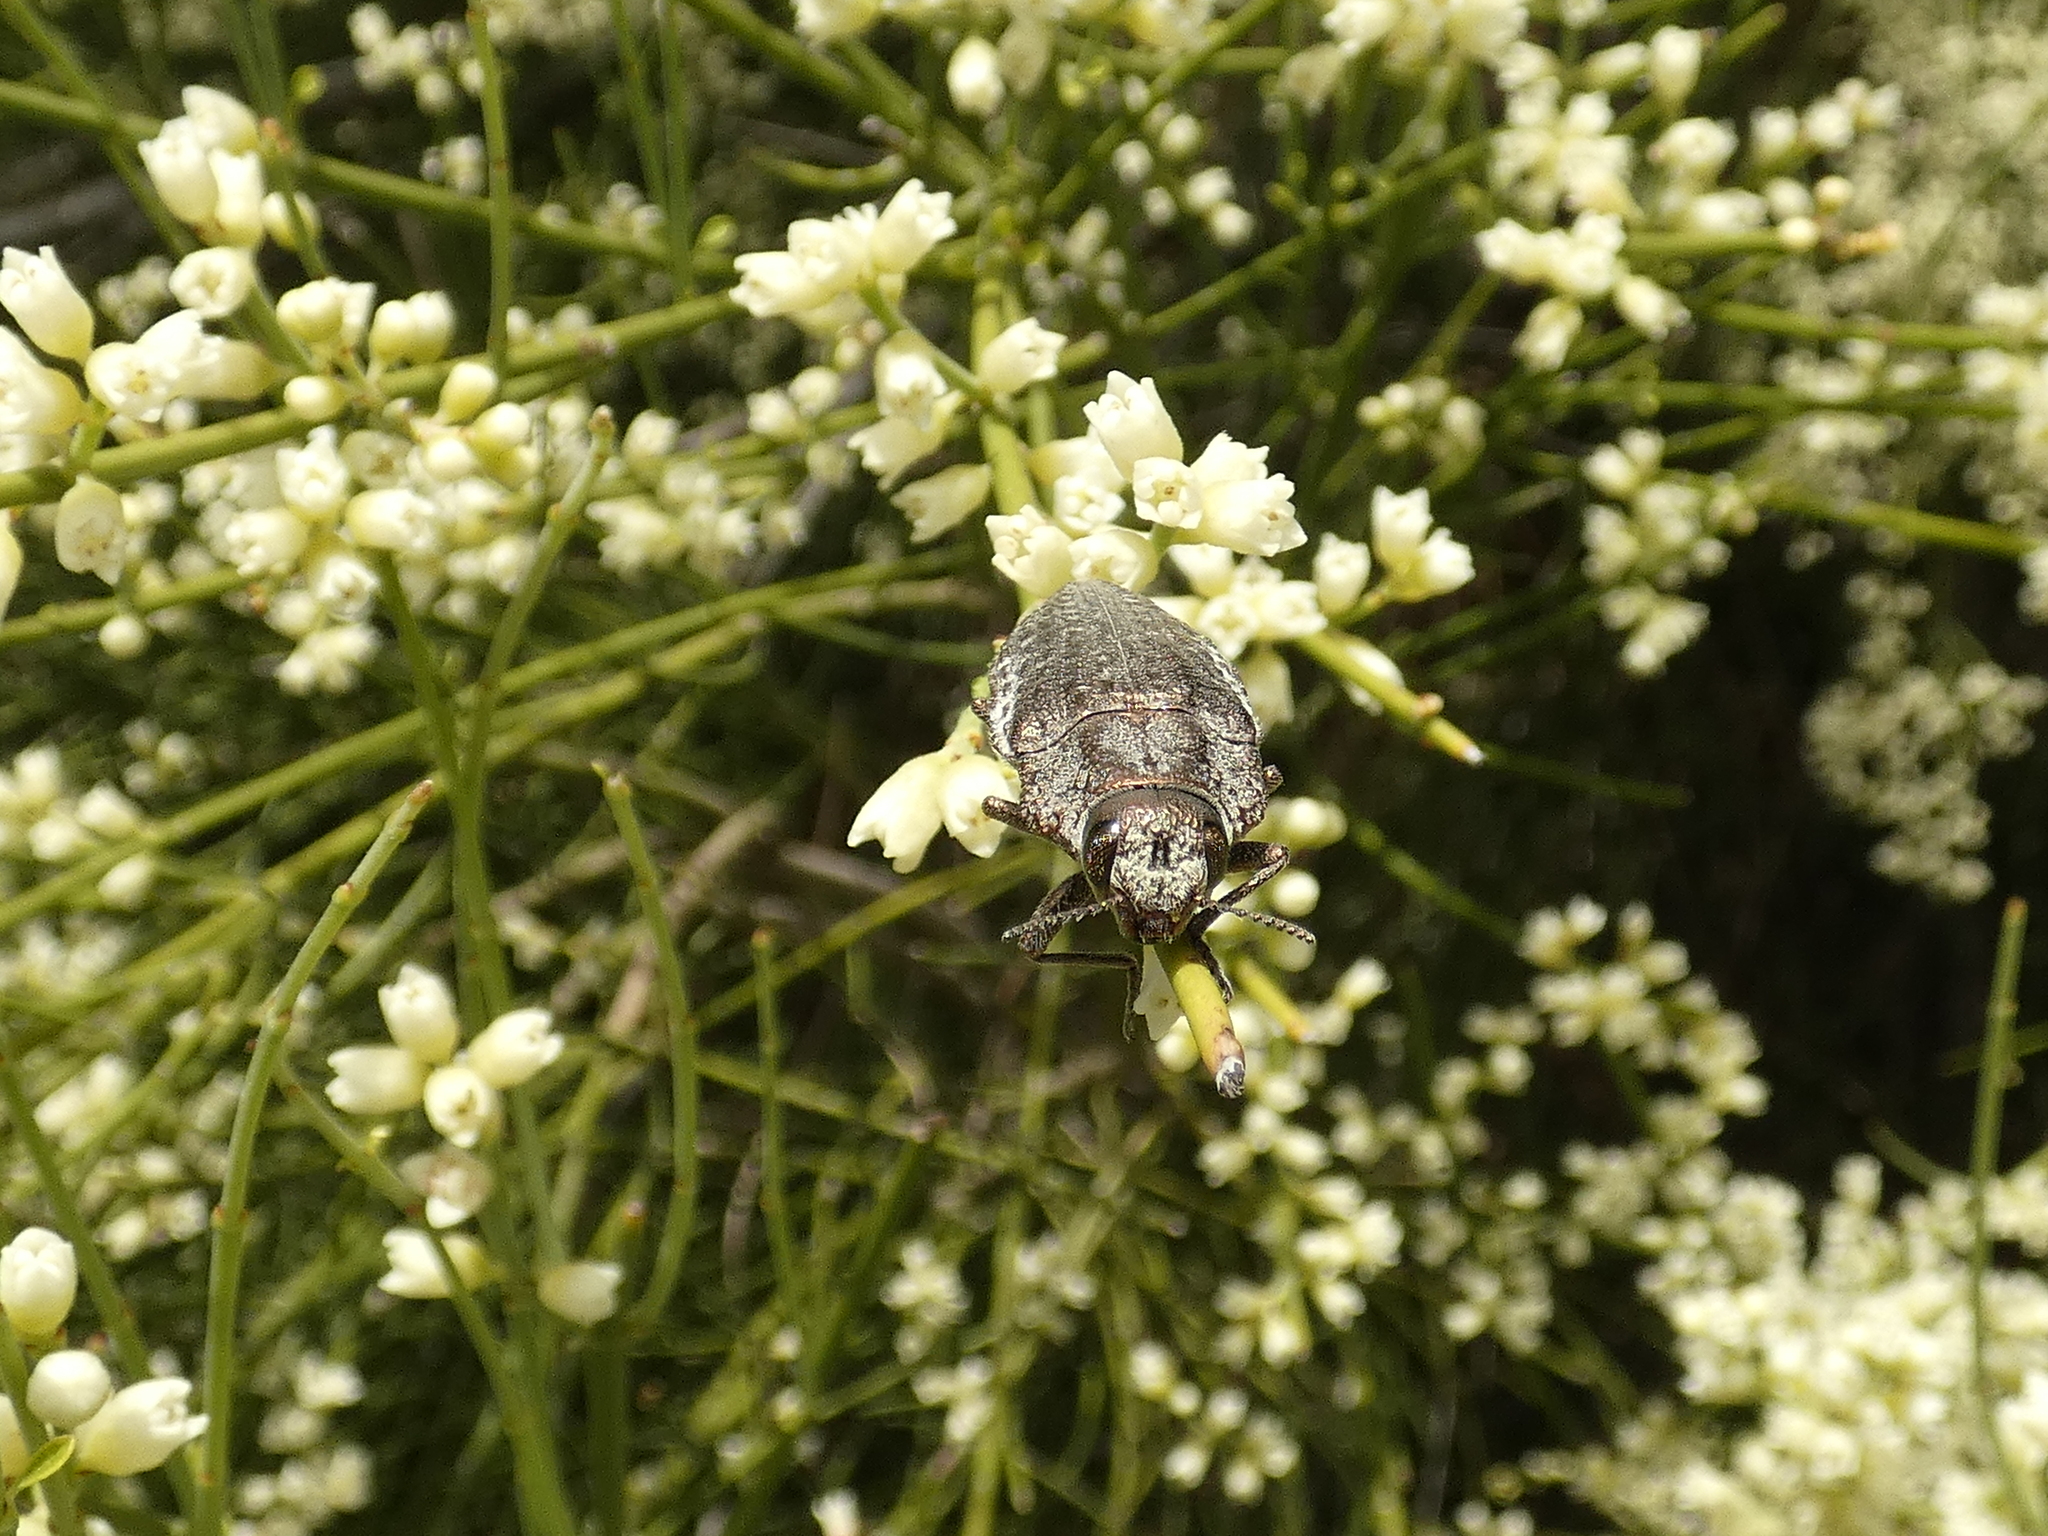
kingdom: Animalia
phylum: Arthropoda
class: Insecta
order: Coleoptera
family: Buprestidae
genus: Ectinogonia
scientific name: Ectinogonia buquetii
